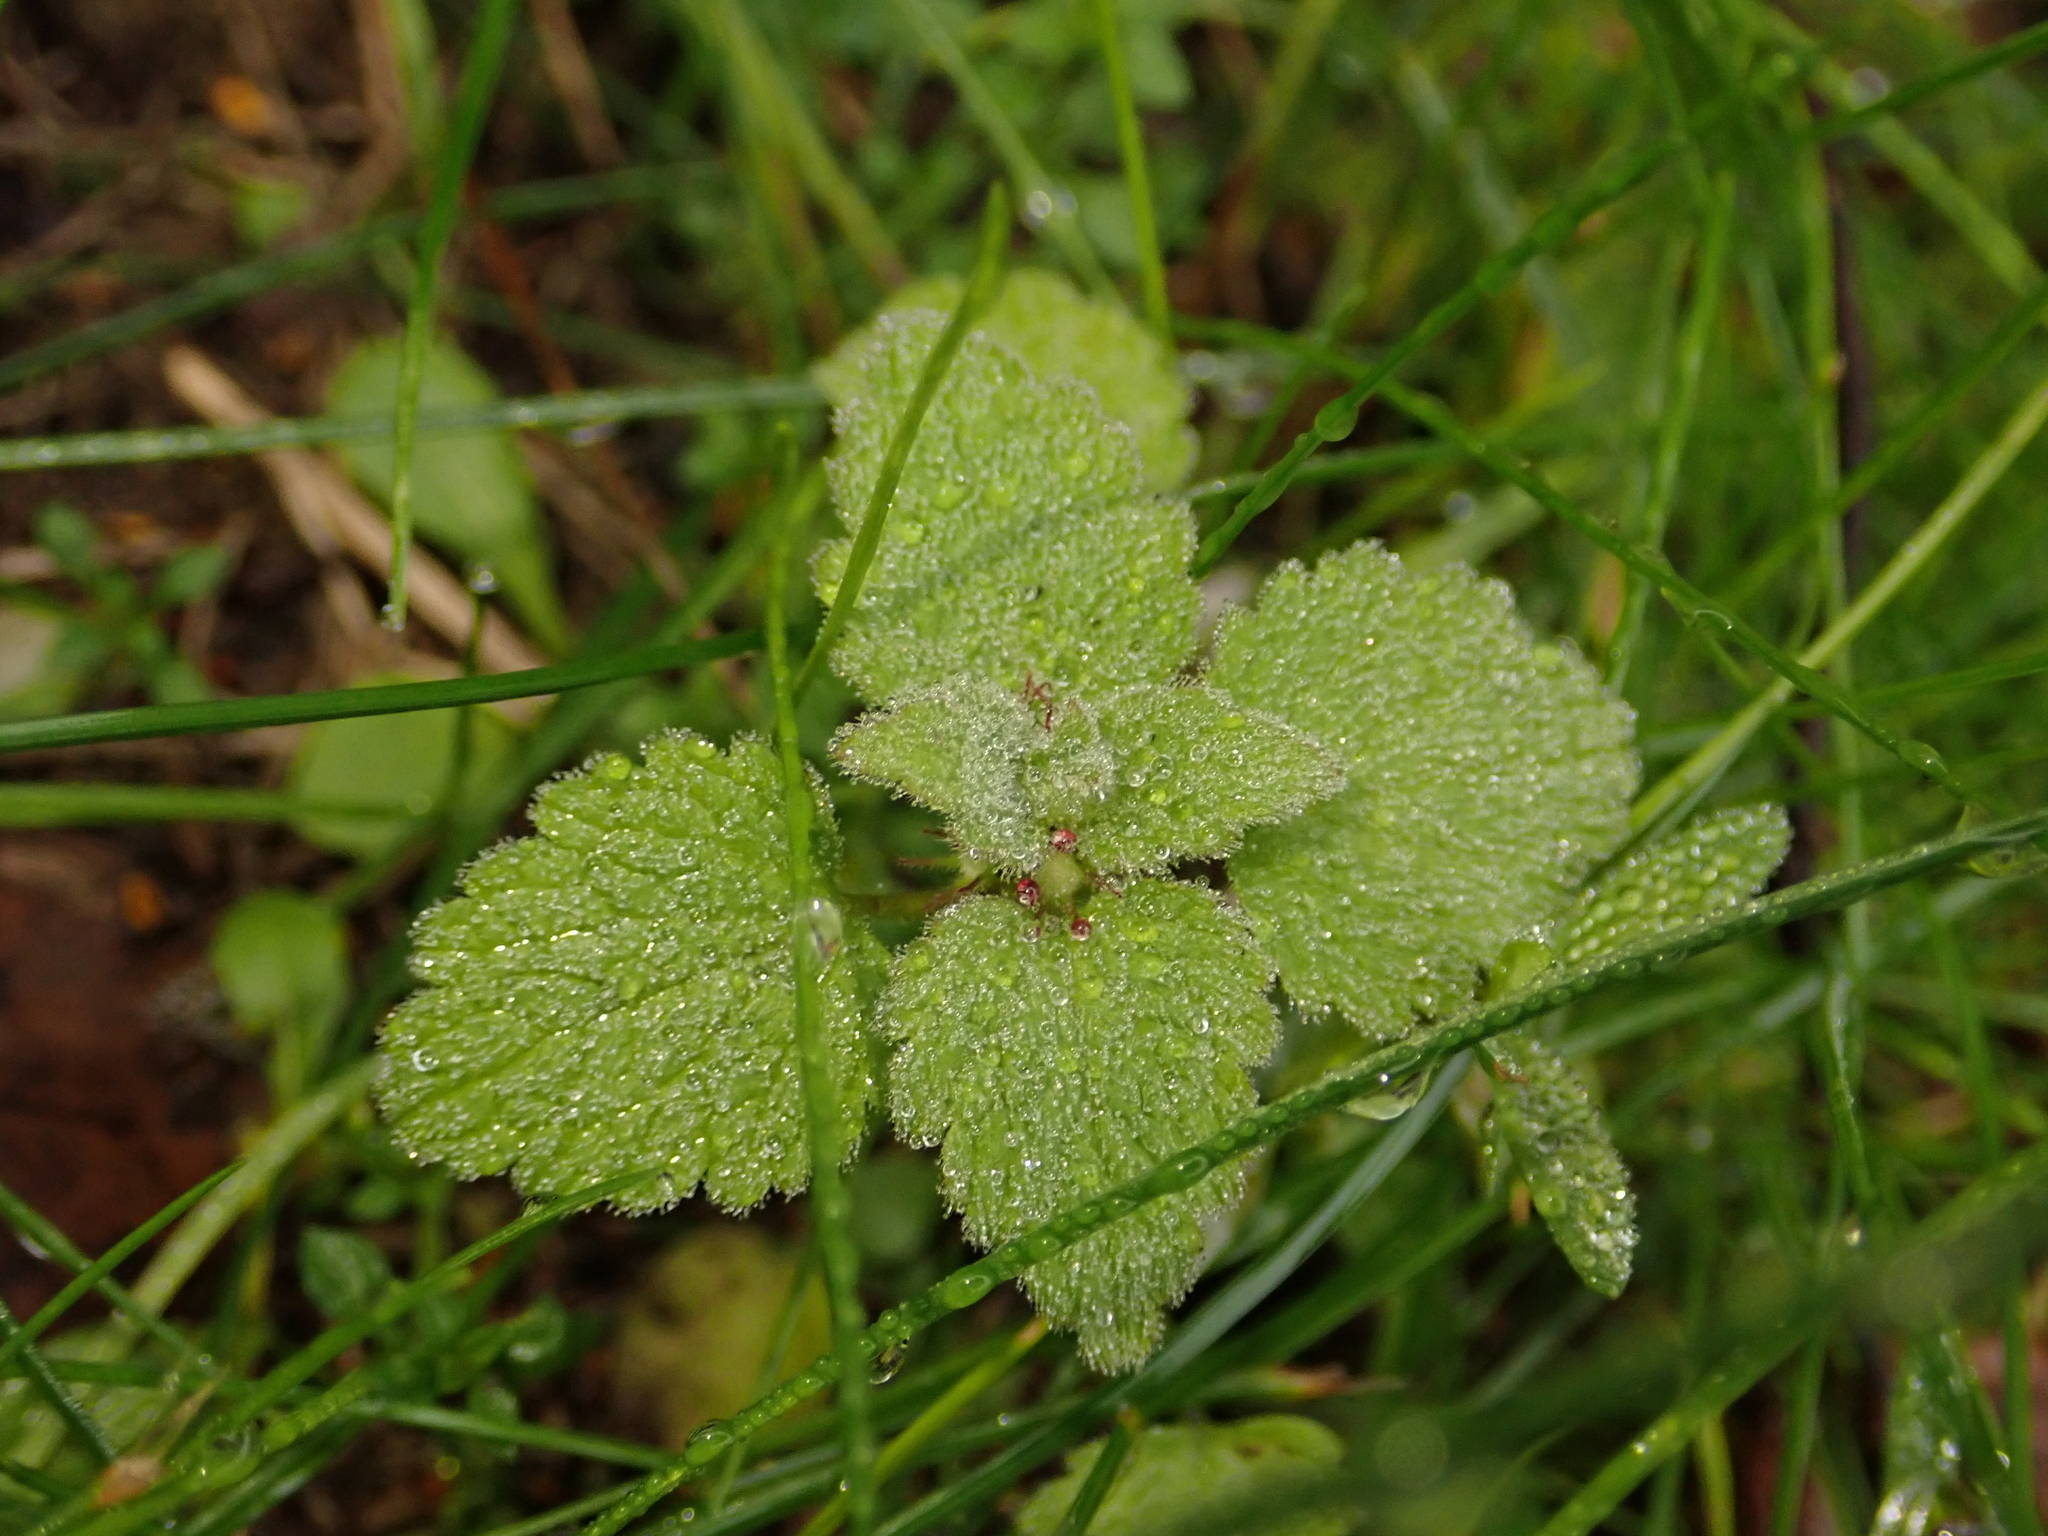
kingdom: Plantae
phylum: Tracheophyta
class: Magnoliopsida
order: Lamiales
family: Lamiaceae
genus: Lamium
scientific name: Lamium purpureum
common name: Red dead-nettle
